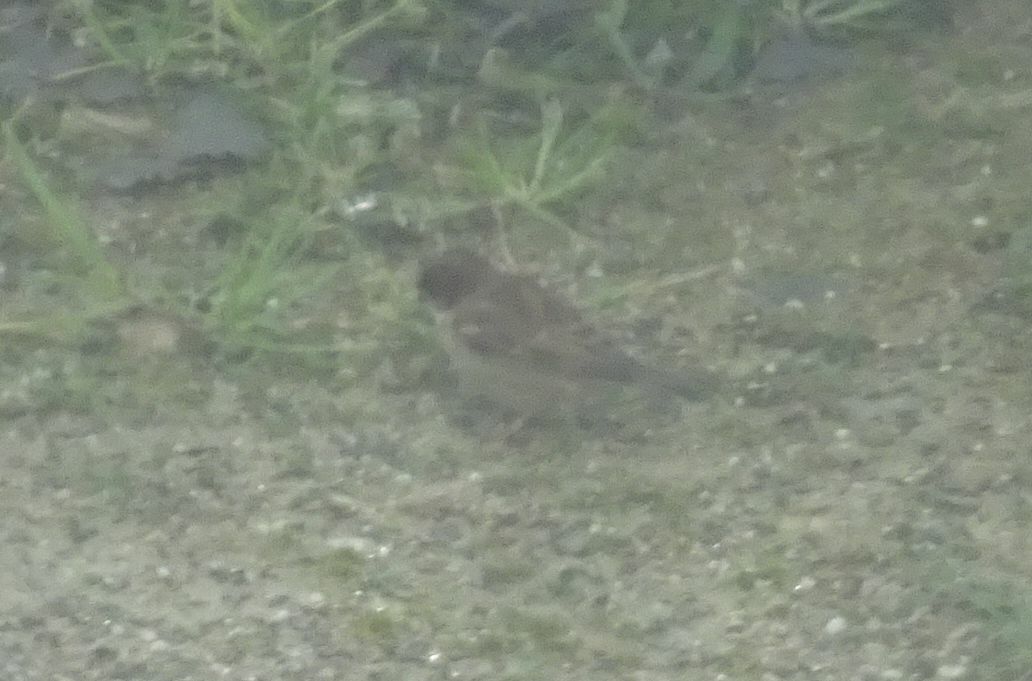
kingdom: Animalia
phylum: Chordata
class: Aves
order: Passeriformes
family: Passeridae
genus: Passer
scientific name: Passer domesticus
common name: House sparrow
